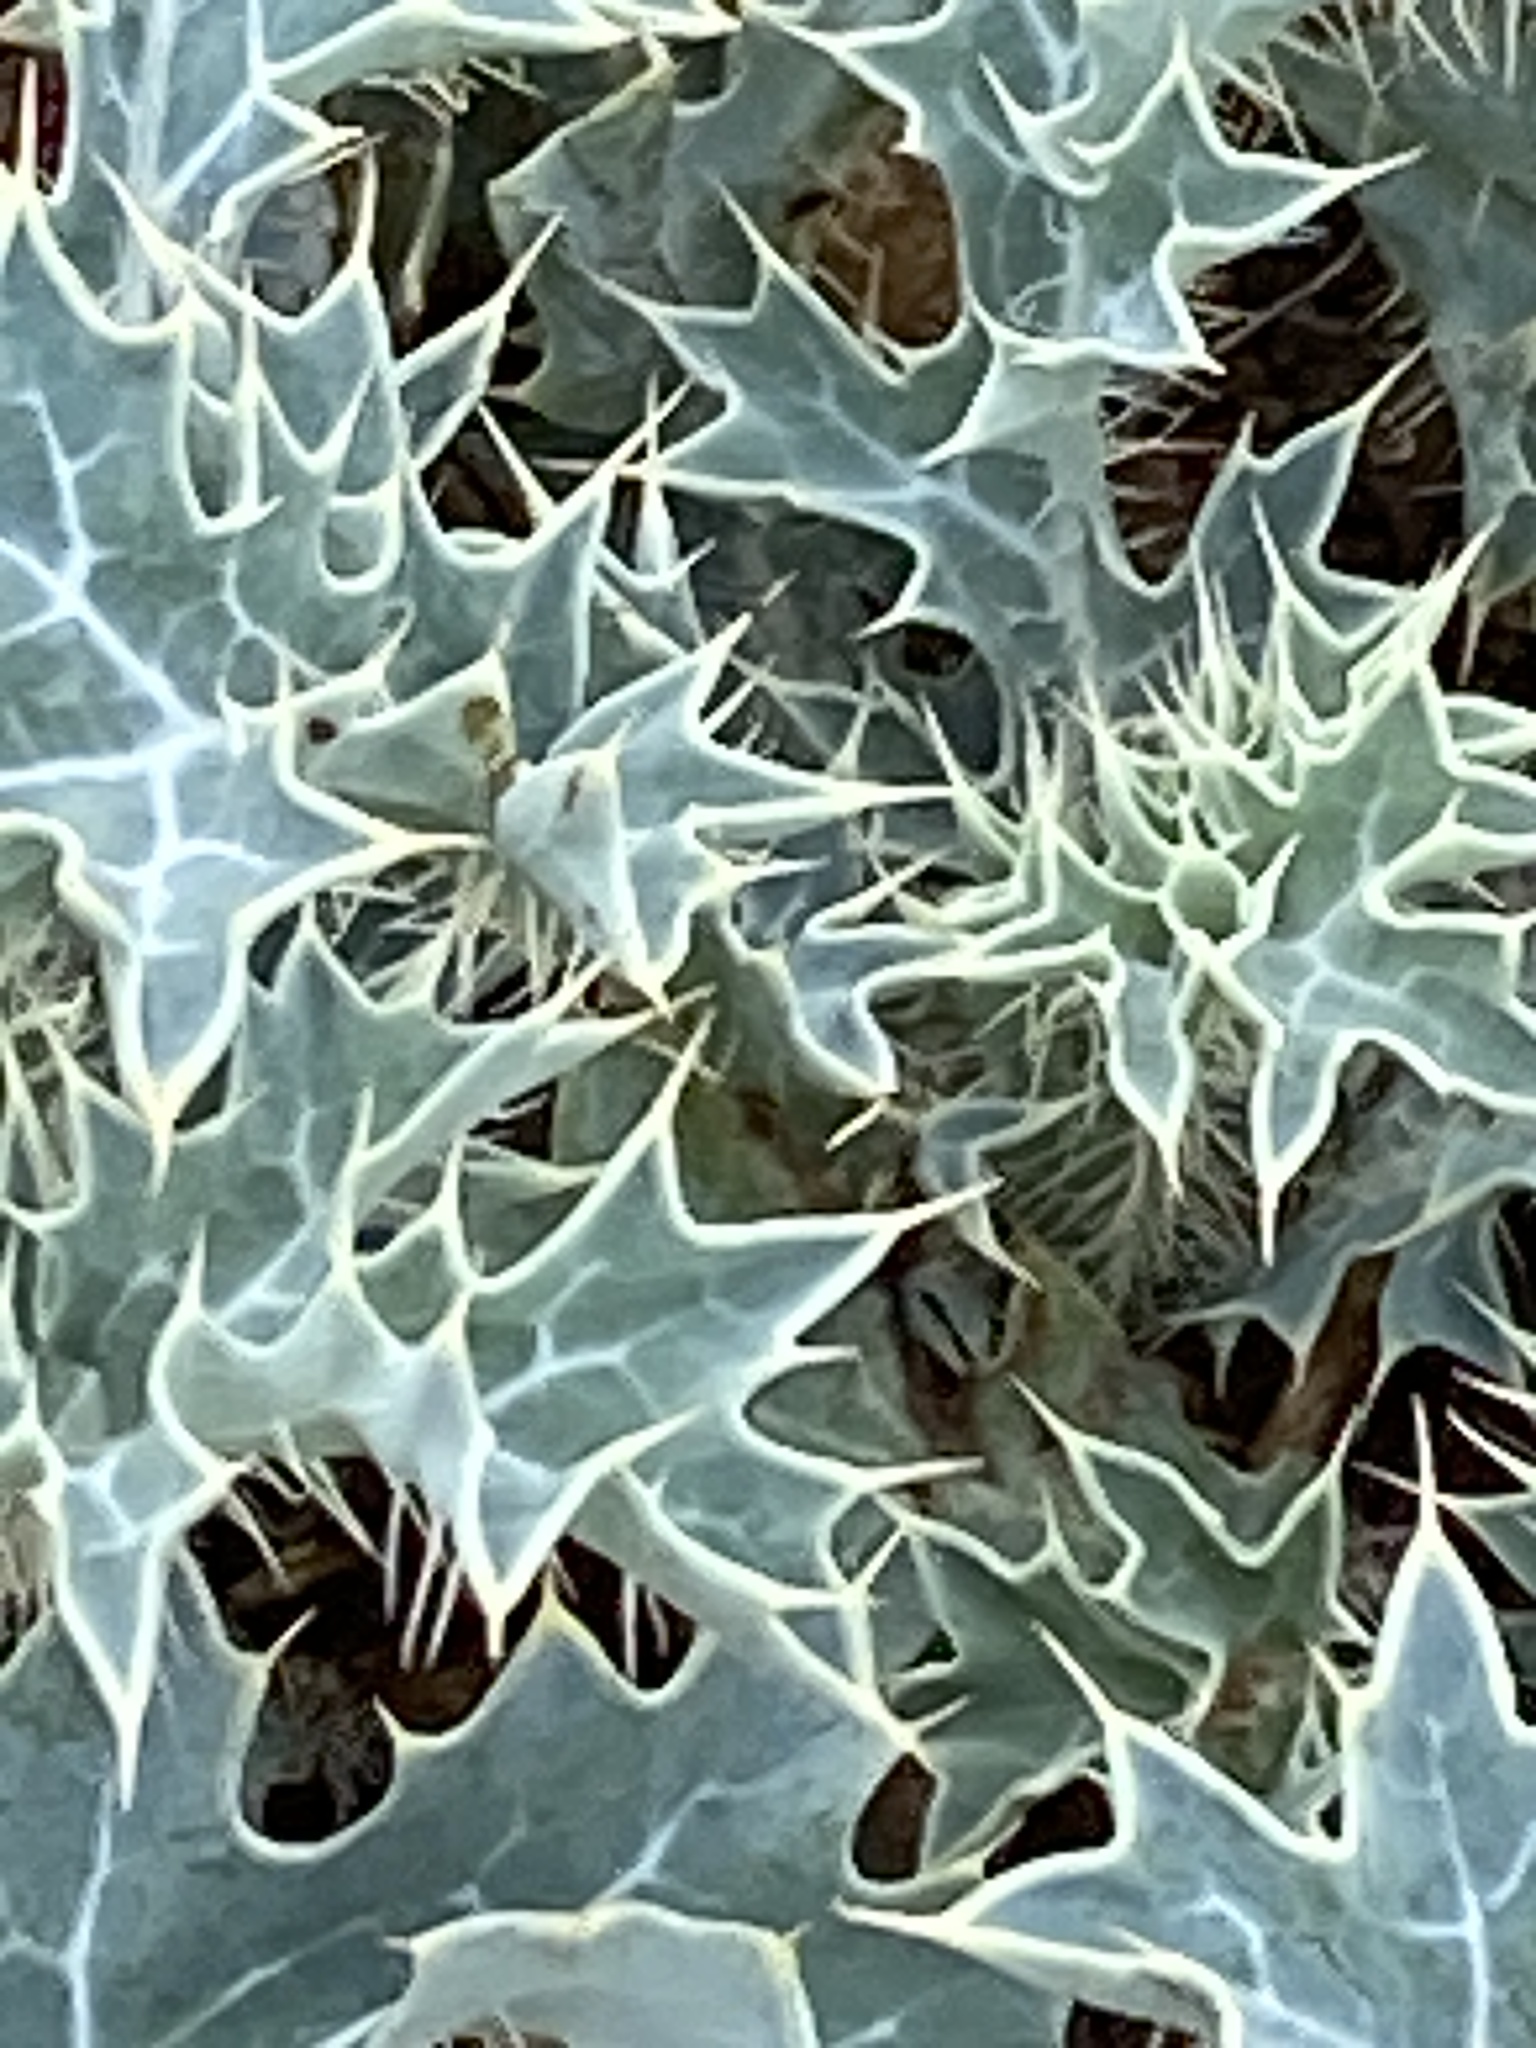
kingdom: Plantae
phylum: Tracheophyta
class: Magnoliopsida
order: Ranunculales
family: Papaveraceae
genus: Argemone
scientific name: Argemone albiflora
